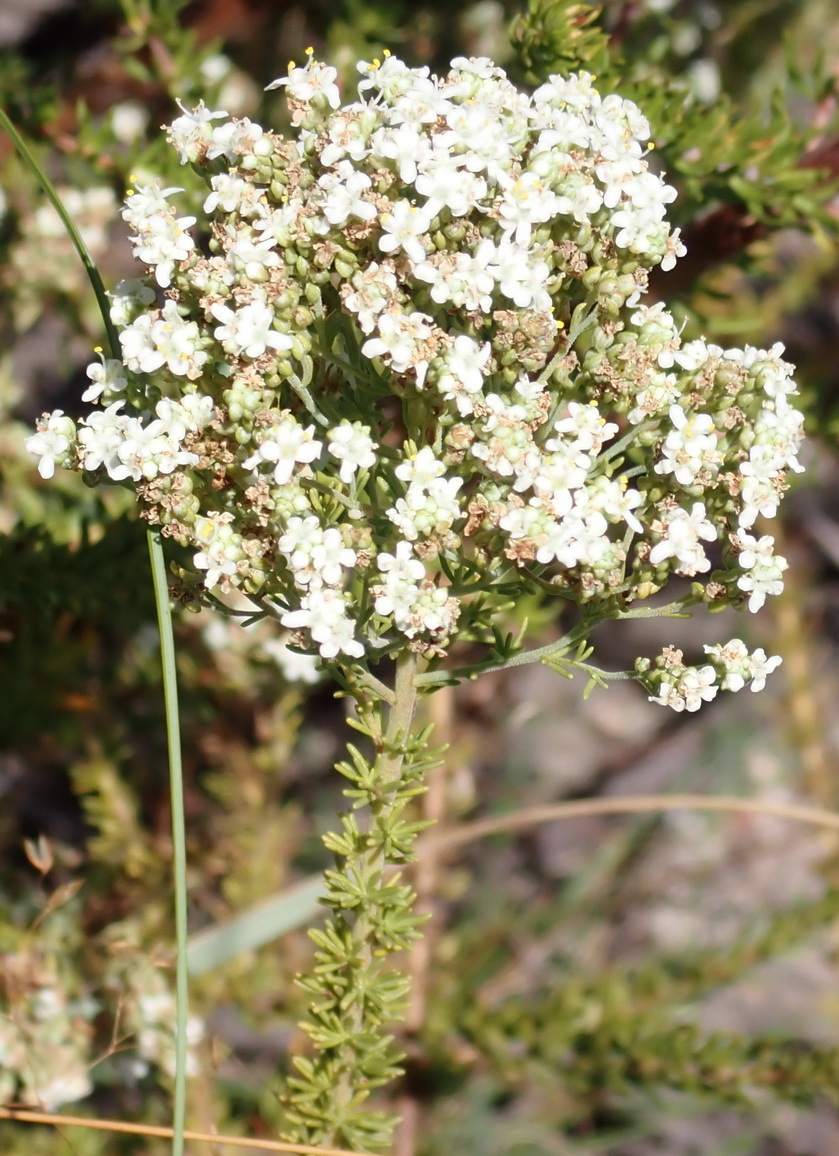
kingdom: Plantae
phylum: Tracheophyta
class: Magnoliopsida
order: Lamiales
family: Scrophulariaceae
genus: Selago
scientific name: Selago corymbosa
